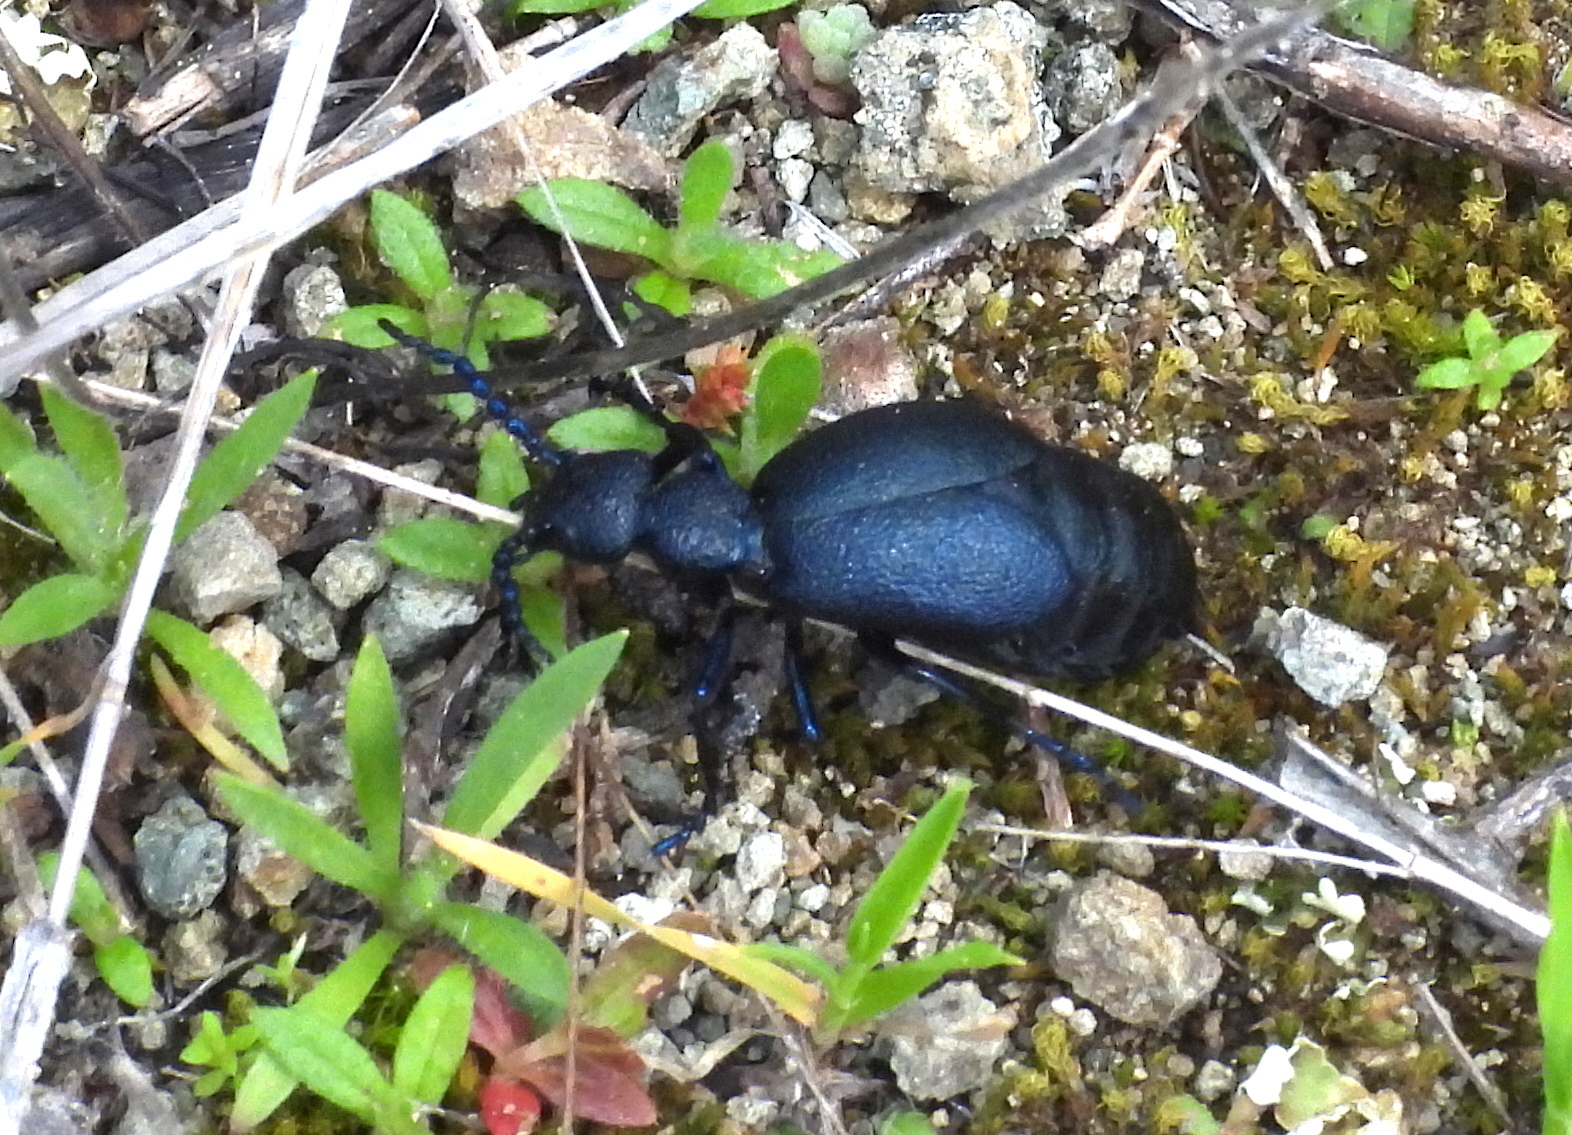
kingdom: Animalia
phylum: Arthropoda
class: Insecta
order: Coleoptera
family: Meloidae
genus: Meloe
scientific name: Meloe proscarabaeus
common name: Black oil-beetle
